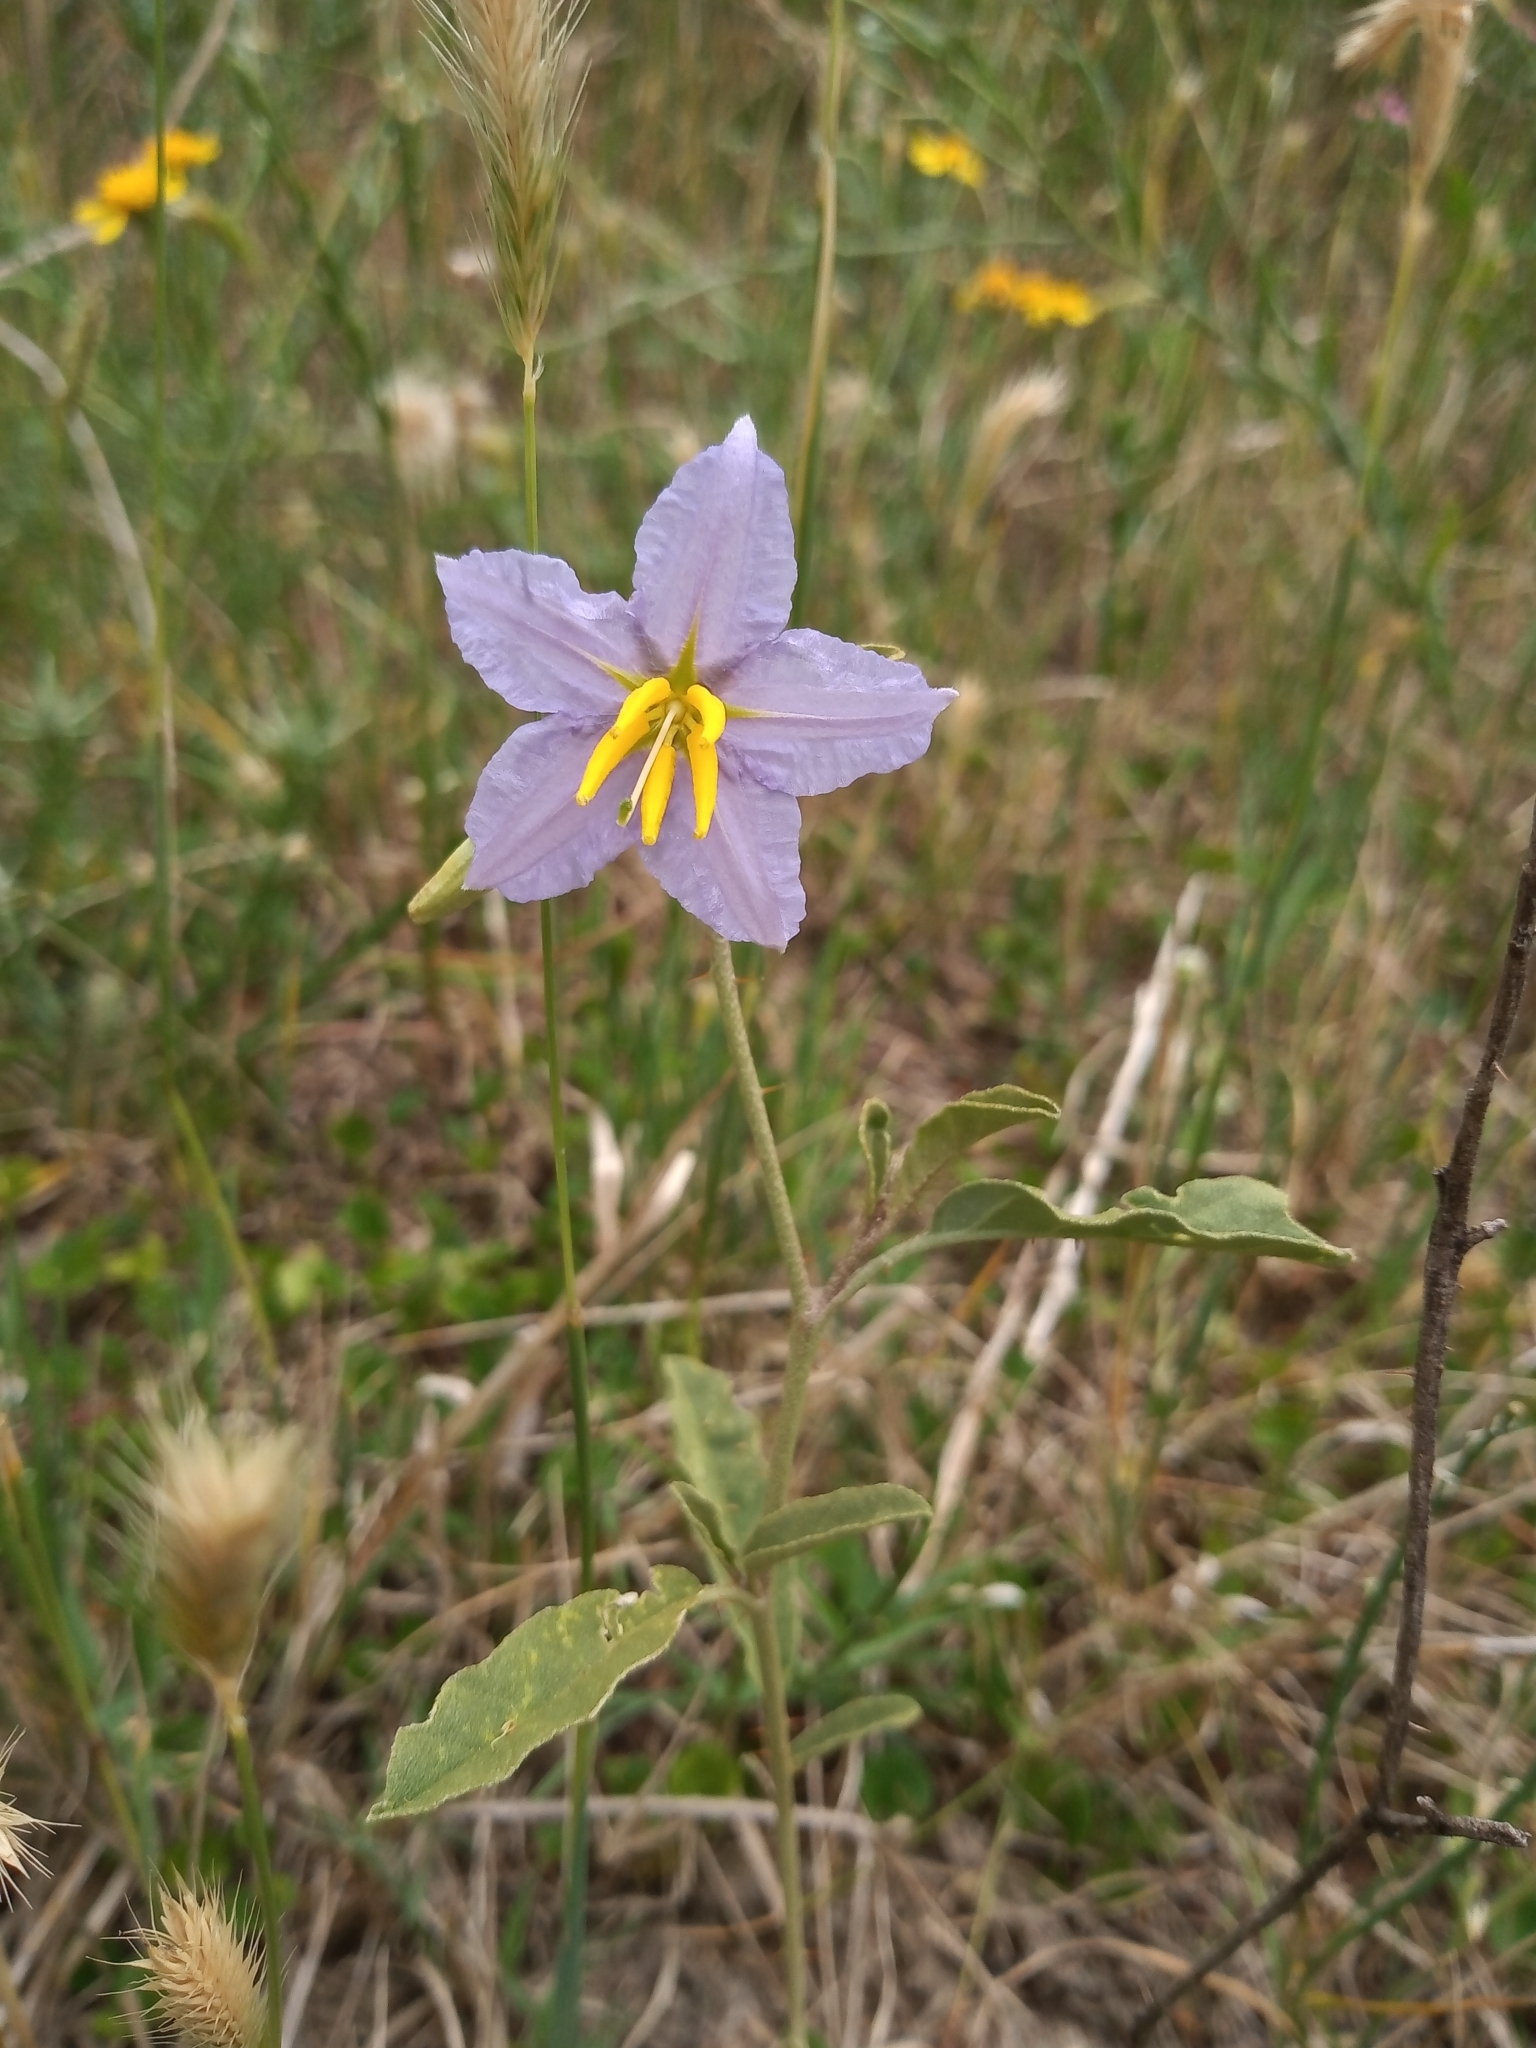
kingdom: Plantae
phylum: Tracheophyta
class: Magnoliopsida
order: Solanales
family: Solanaceae
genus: Solanum
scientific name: Solanum elaeagnifolium
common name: Silverleaf nightshade
